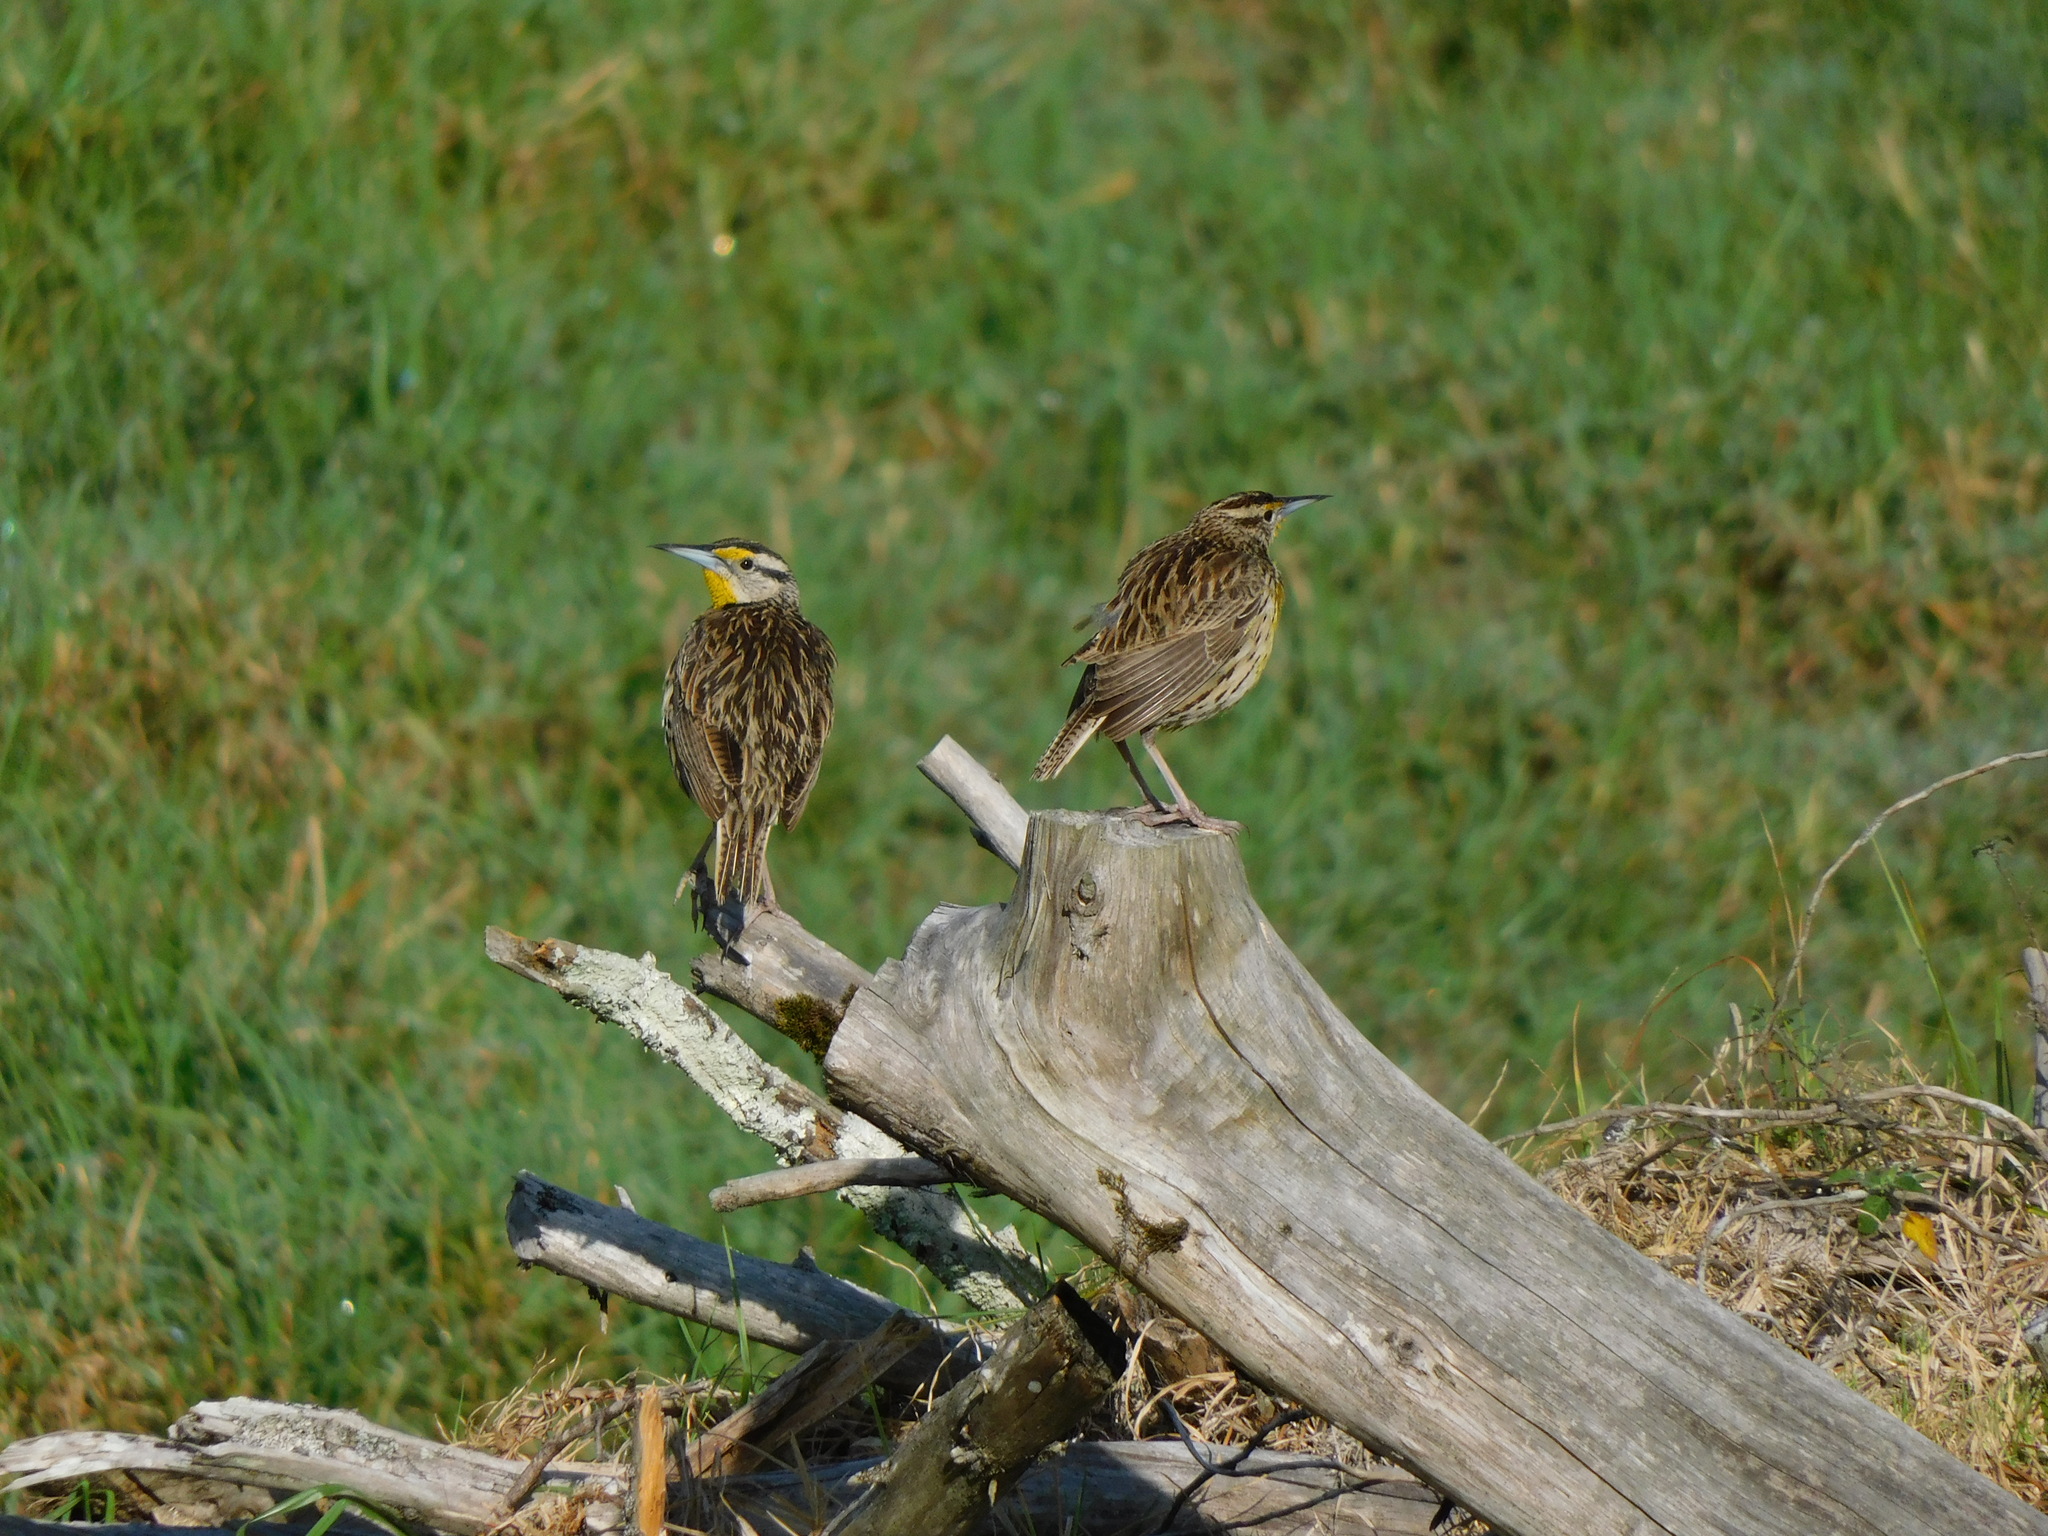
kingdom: Animalia
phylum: Chordata
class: Aves
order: Passeriformes
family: Icteridae
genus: Sturnella
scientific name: Sturnella magna
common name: Eastern meadowlark
